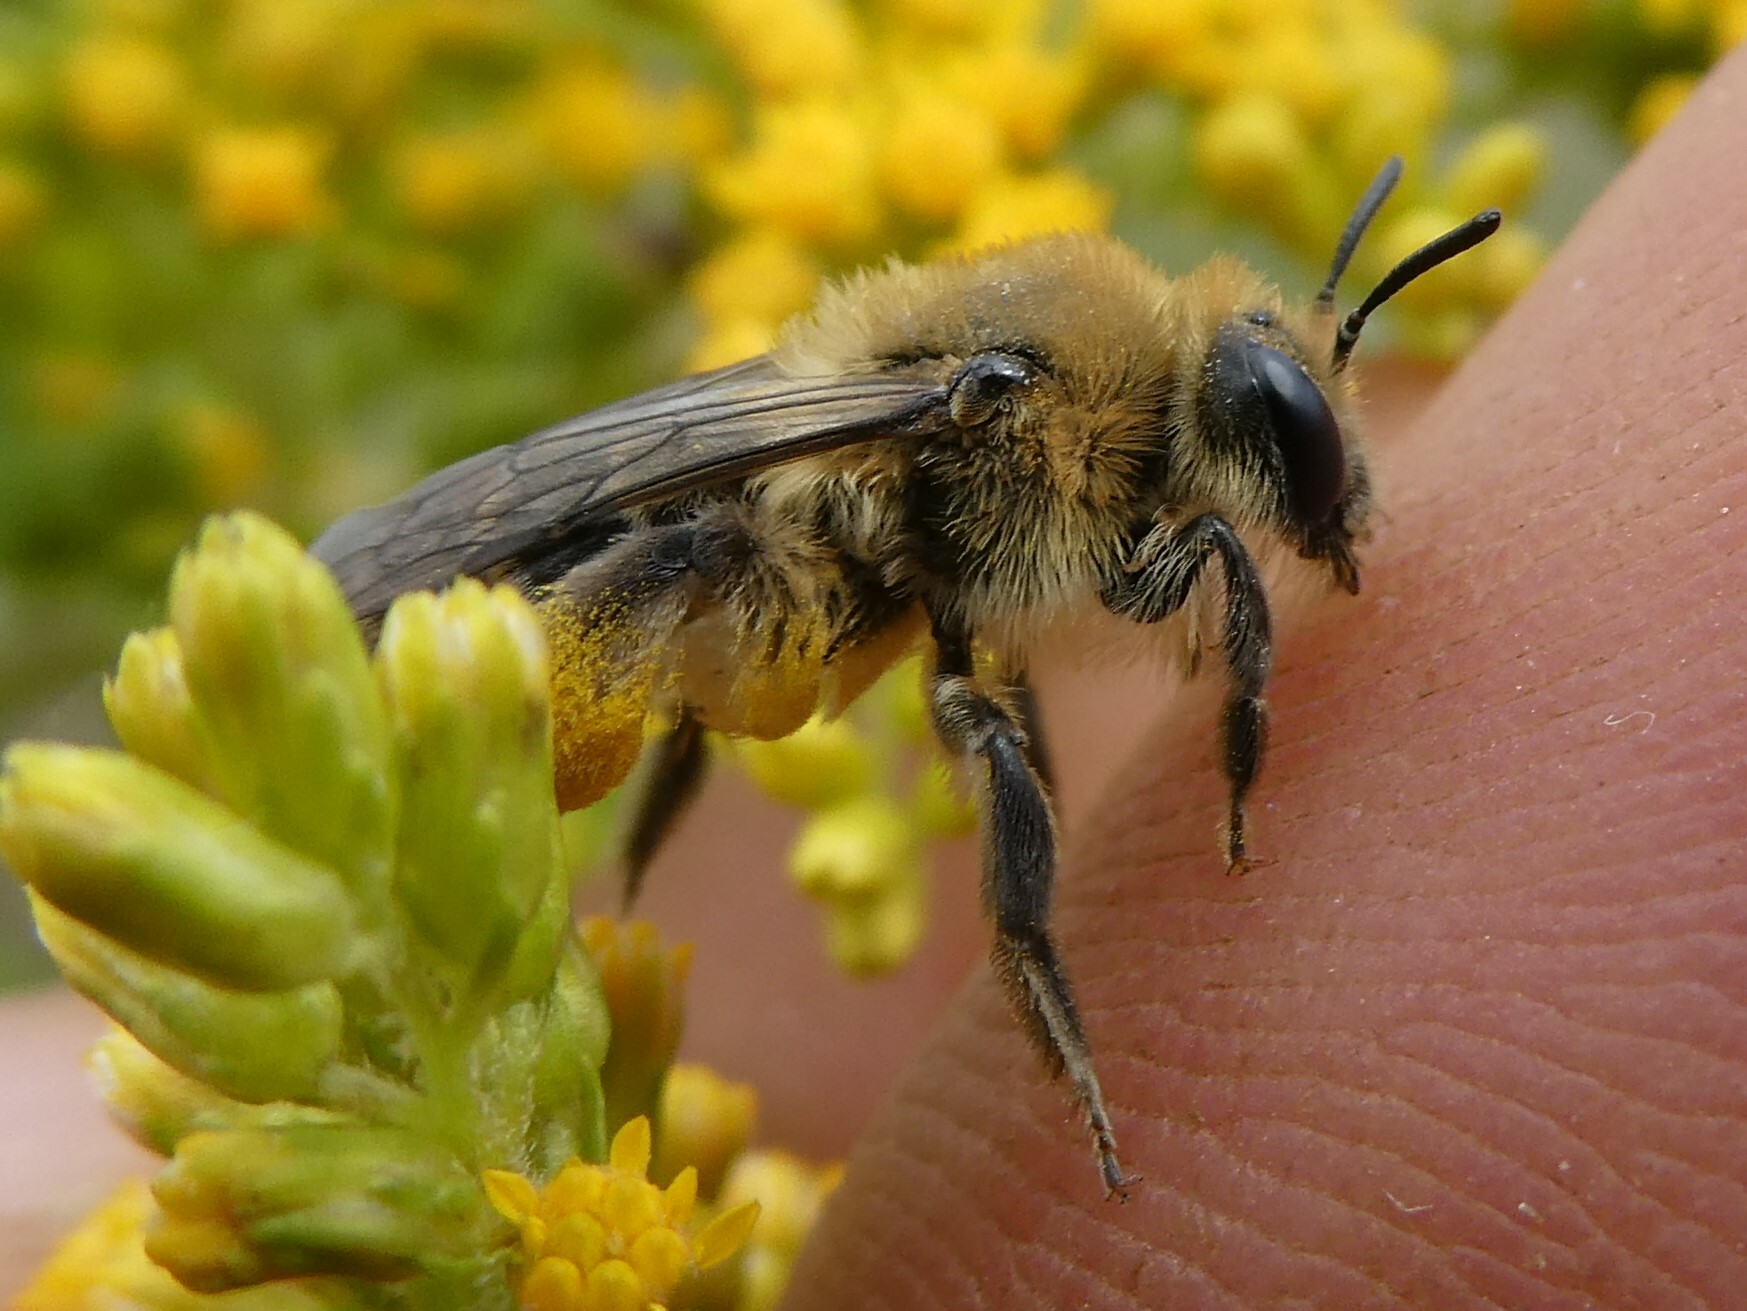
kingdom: Animalia
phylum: Arthropoda
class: Insecta
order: Hymenoptera
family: Andrenidae
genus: Andrena
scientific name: Andrena asteris
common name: Aster mining bee
